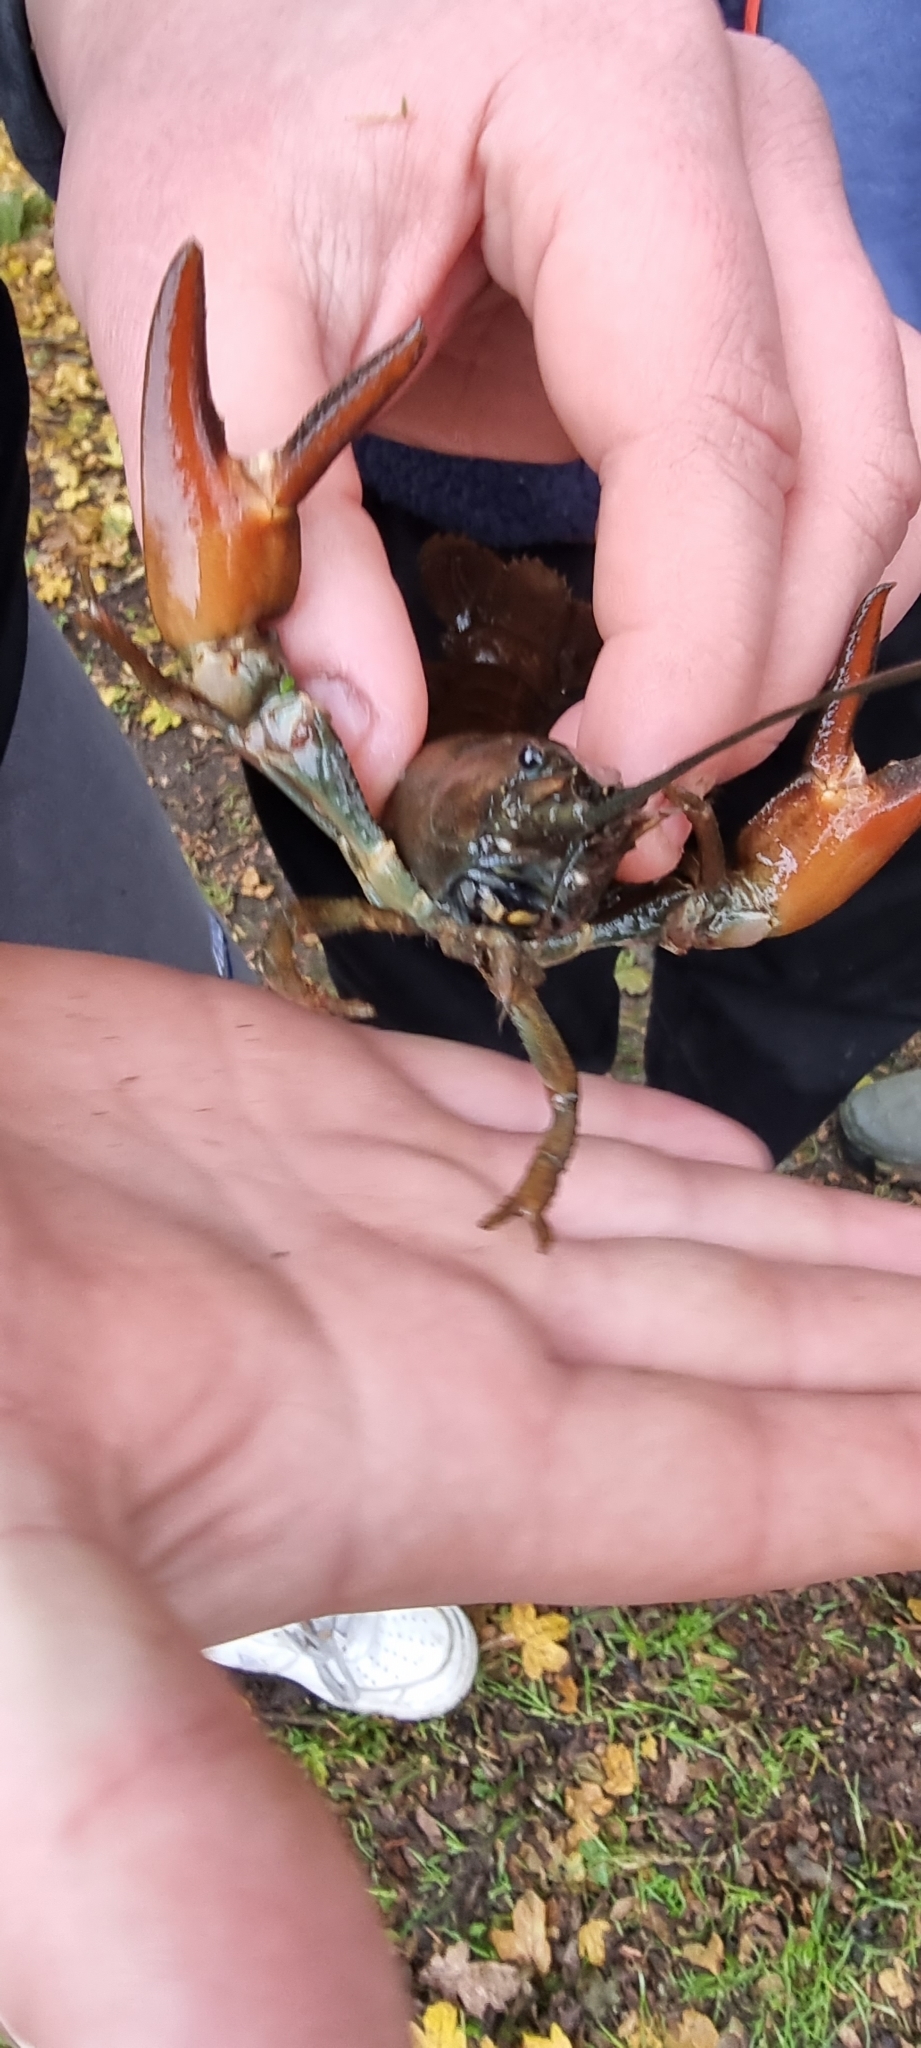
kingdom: Animalia
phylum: Arthropoda
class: Malacostraca
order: Decapoda
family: Astacidae
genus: Pacifastacus
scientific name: Pacifastacus leniusculus
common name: Signal crayfish
